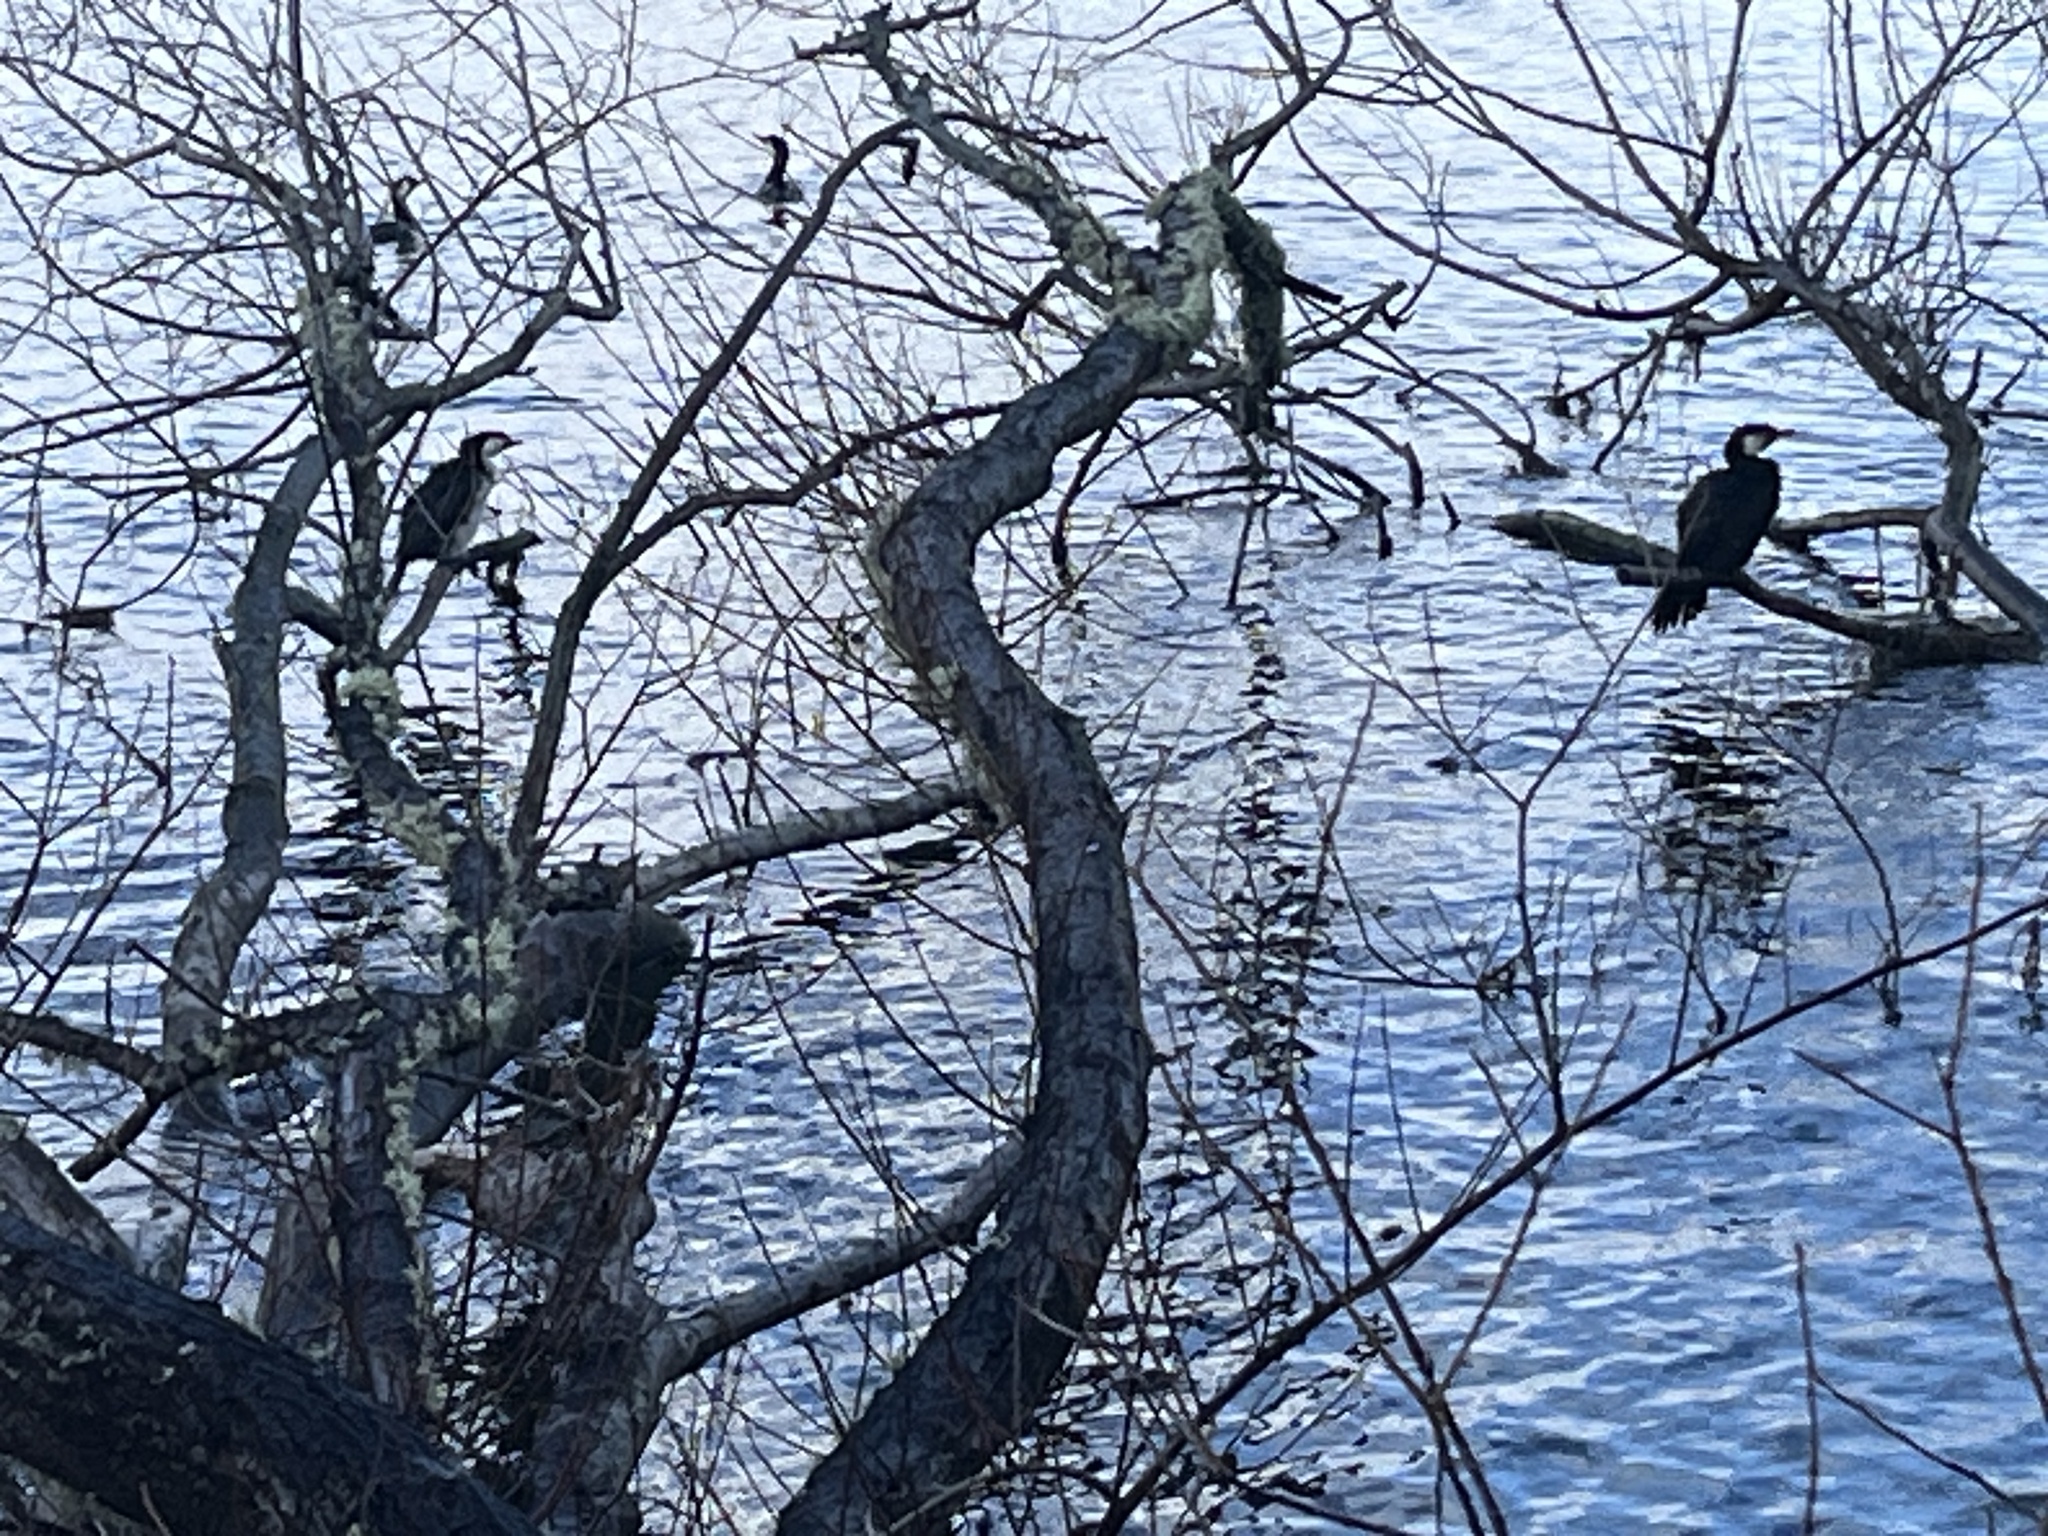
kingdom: Animalia
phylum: Chordata
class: Aves
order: Suliformes
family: Phalacrocoracidae
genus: Microcarbo
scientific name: Microcarbo melanoleucos
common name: Little pied cormorant
